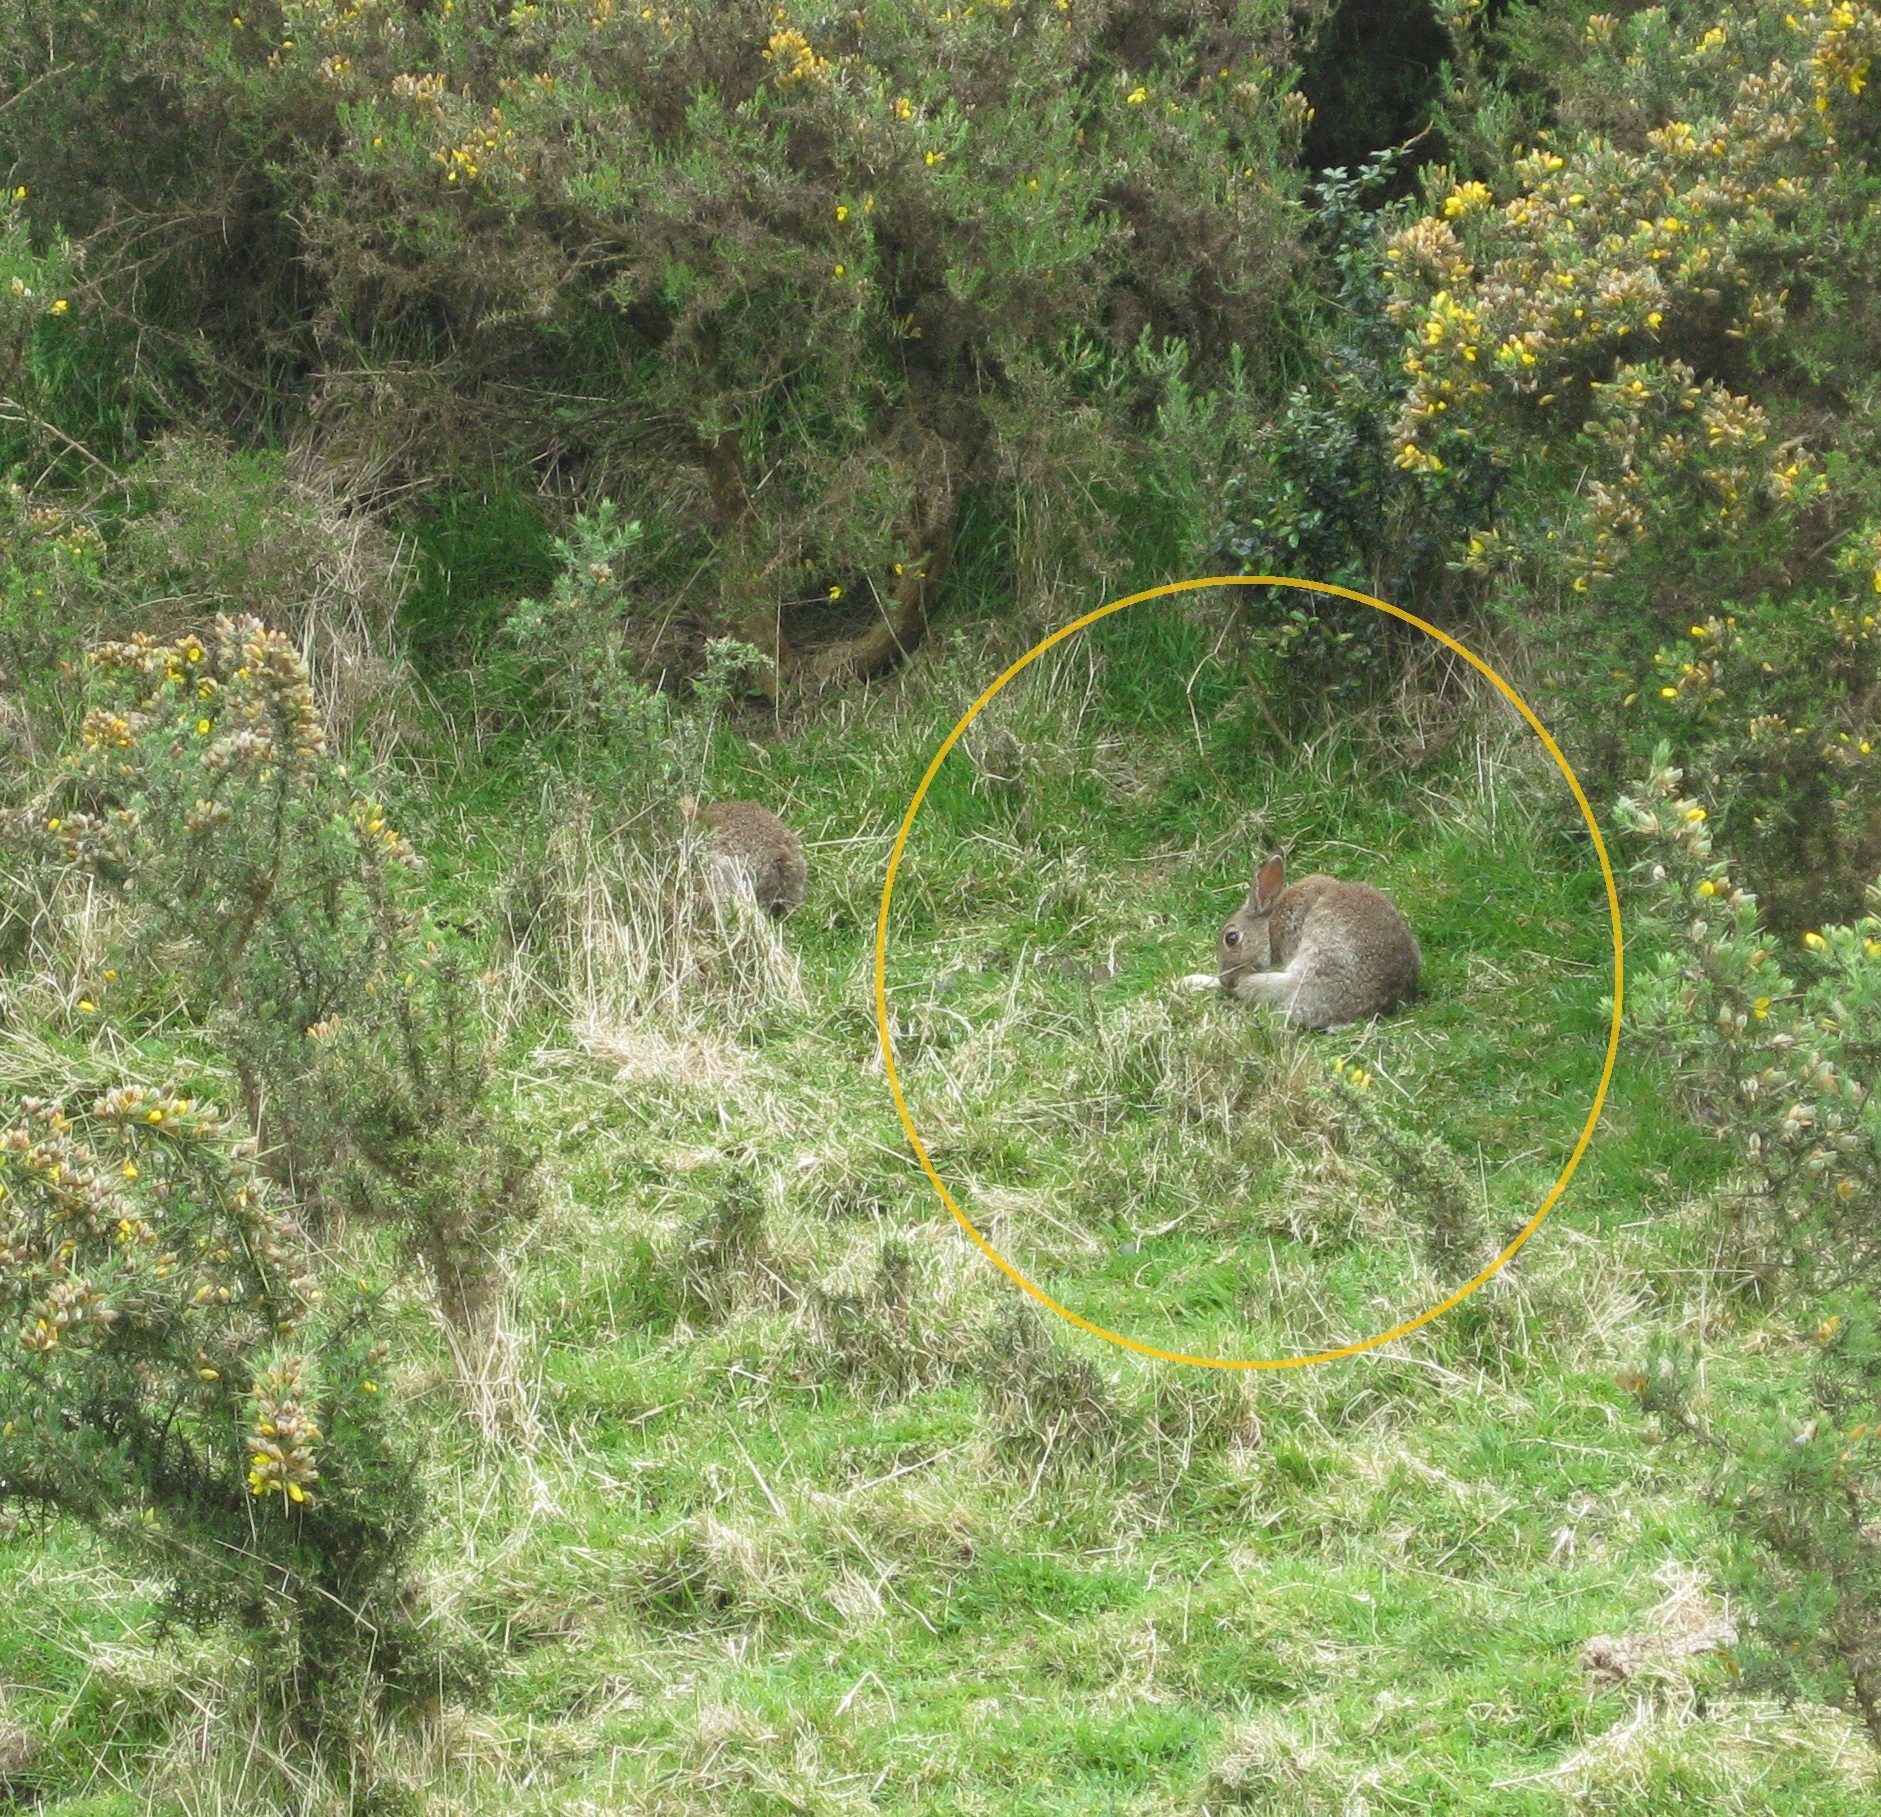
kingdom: Animalia
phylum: Chordata
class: Mammalia
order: Lagomorpha
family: Leporidae
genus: Oryctolagus
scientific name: Oryctolagus cuniculus
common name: European rabbit
